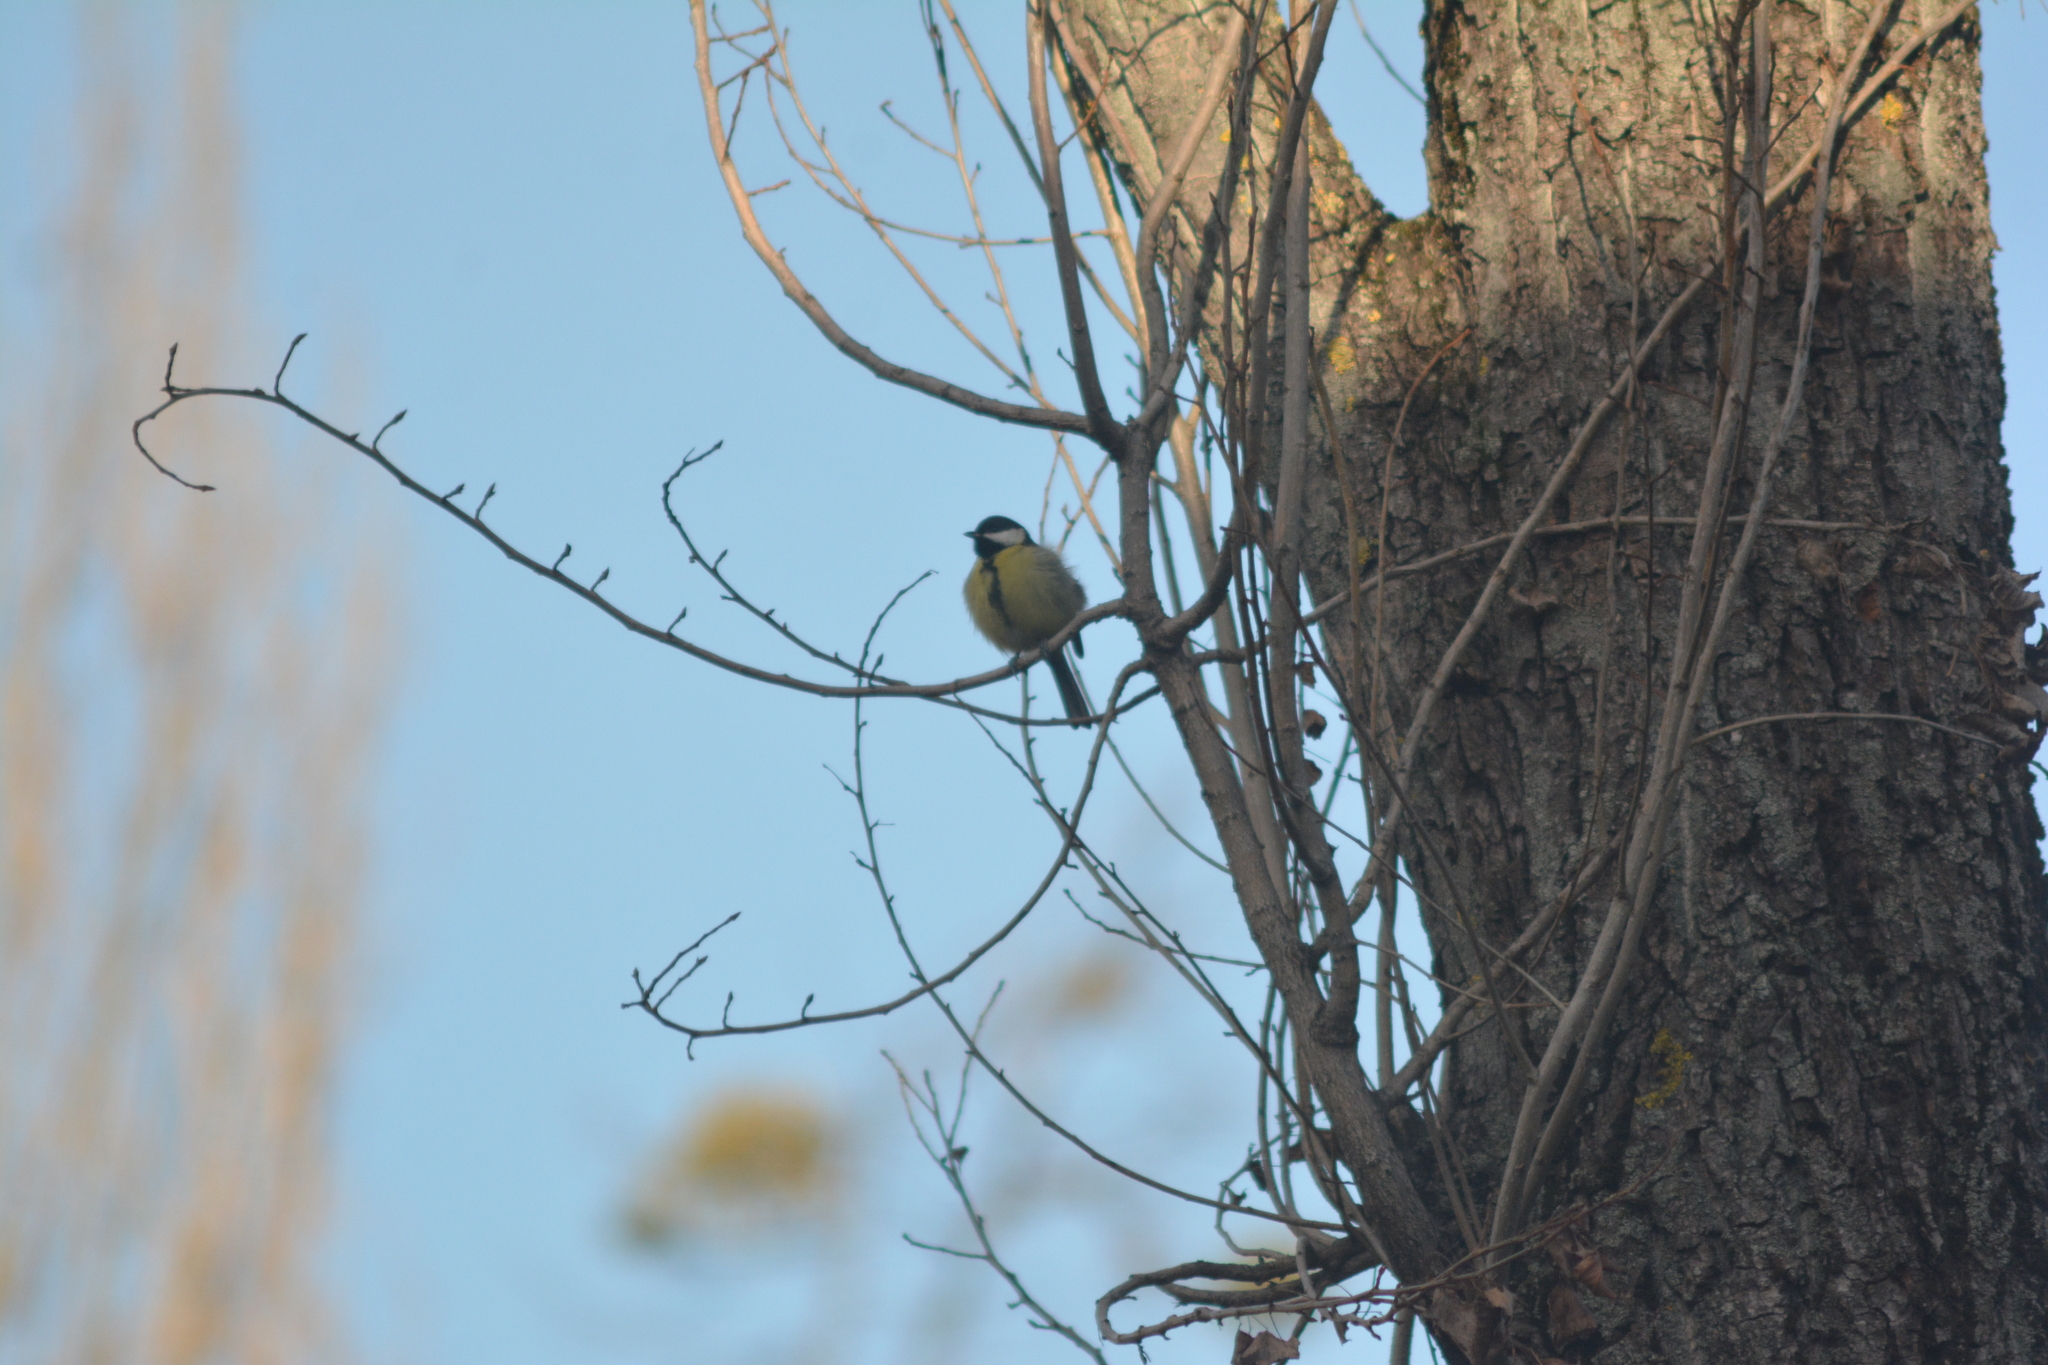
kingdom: Animalia
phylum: Chordata
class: Aves
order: Passeriformes
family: Paridae
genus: Parus
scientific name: Parus major
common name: Great tit
